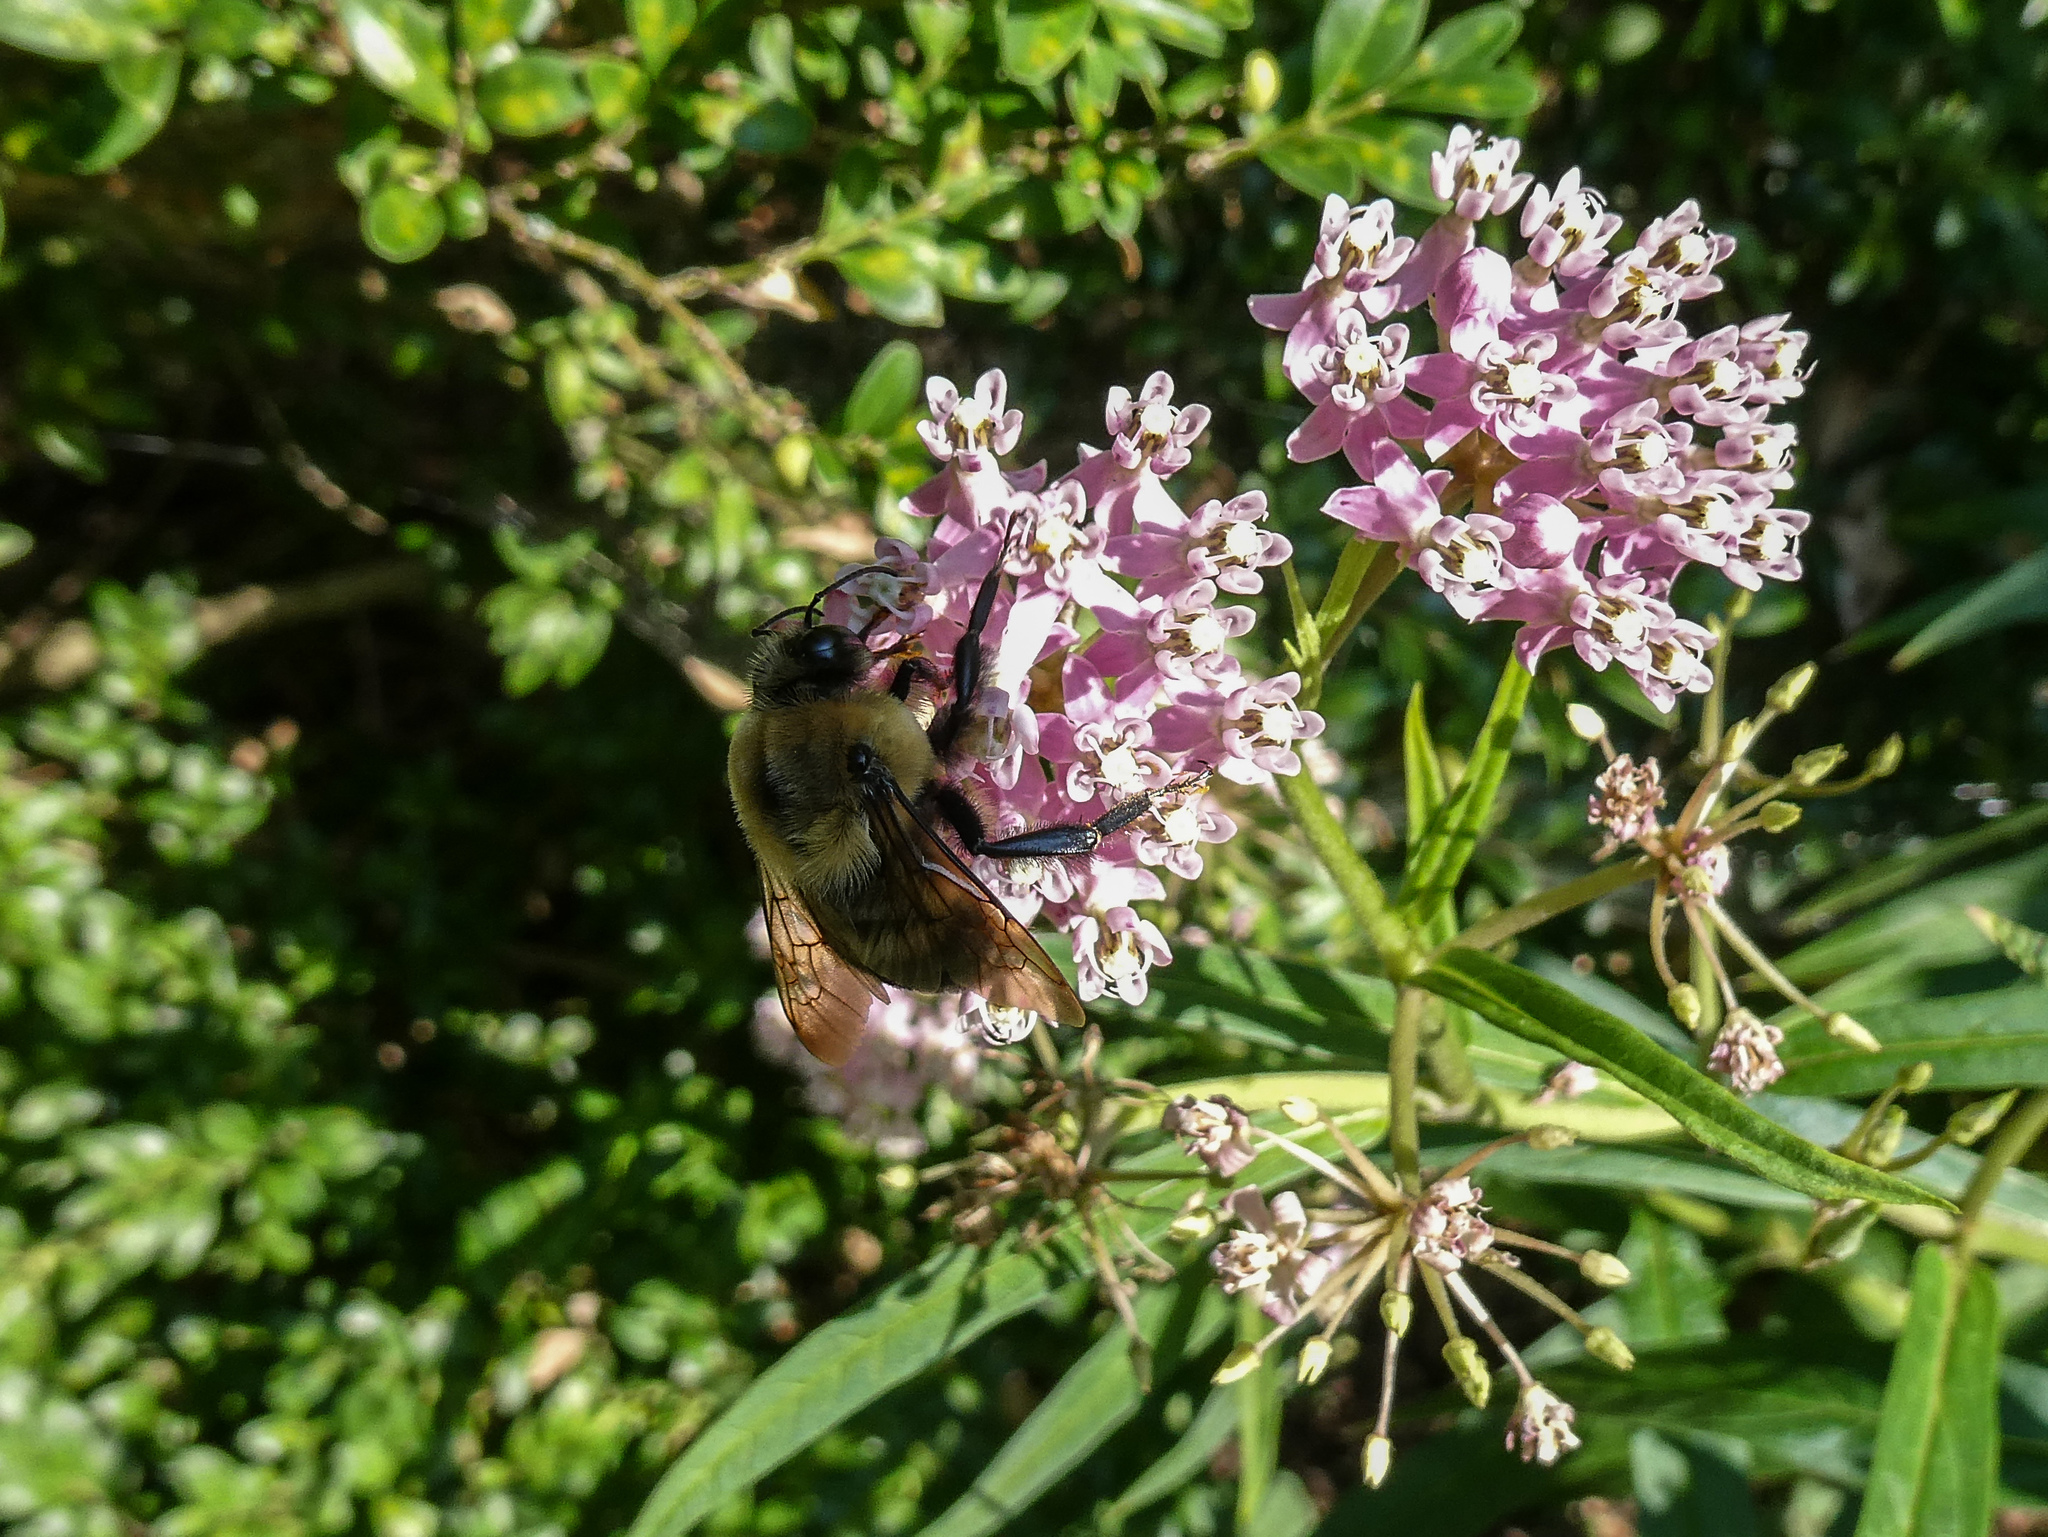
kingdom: Animalia
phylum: Arthropoda
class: Insecta
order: Hymenoptera
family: Apidae
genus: Bombus
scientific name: Bombus griseocollis
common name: Brown-belted bumble bee
